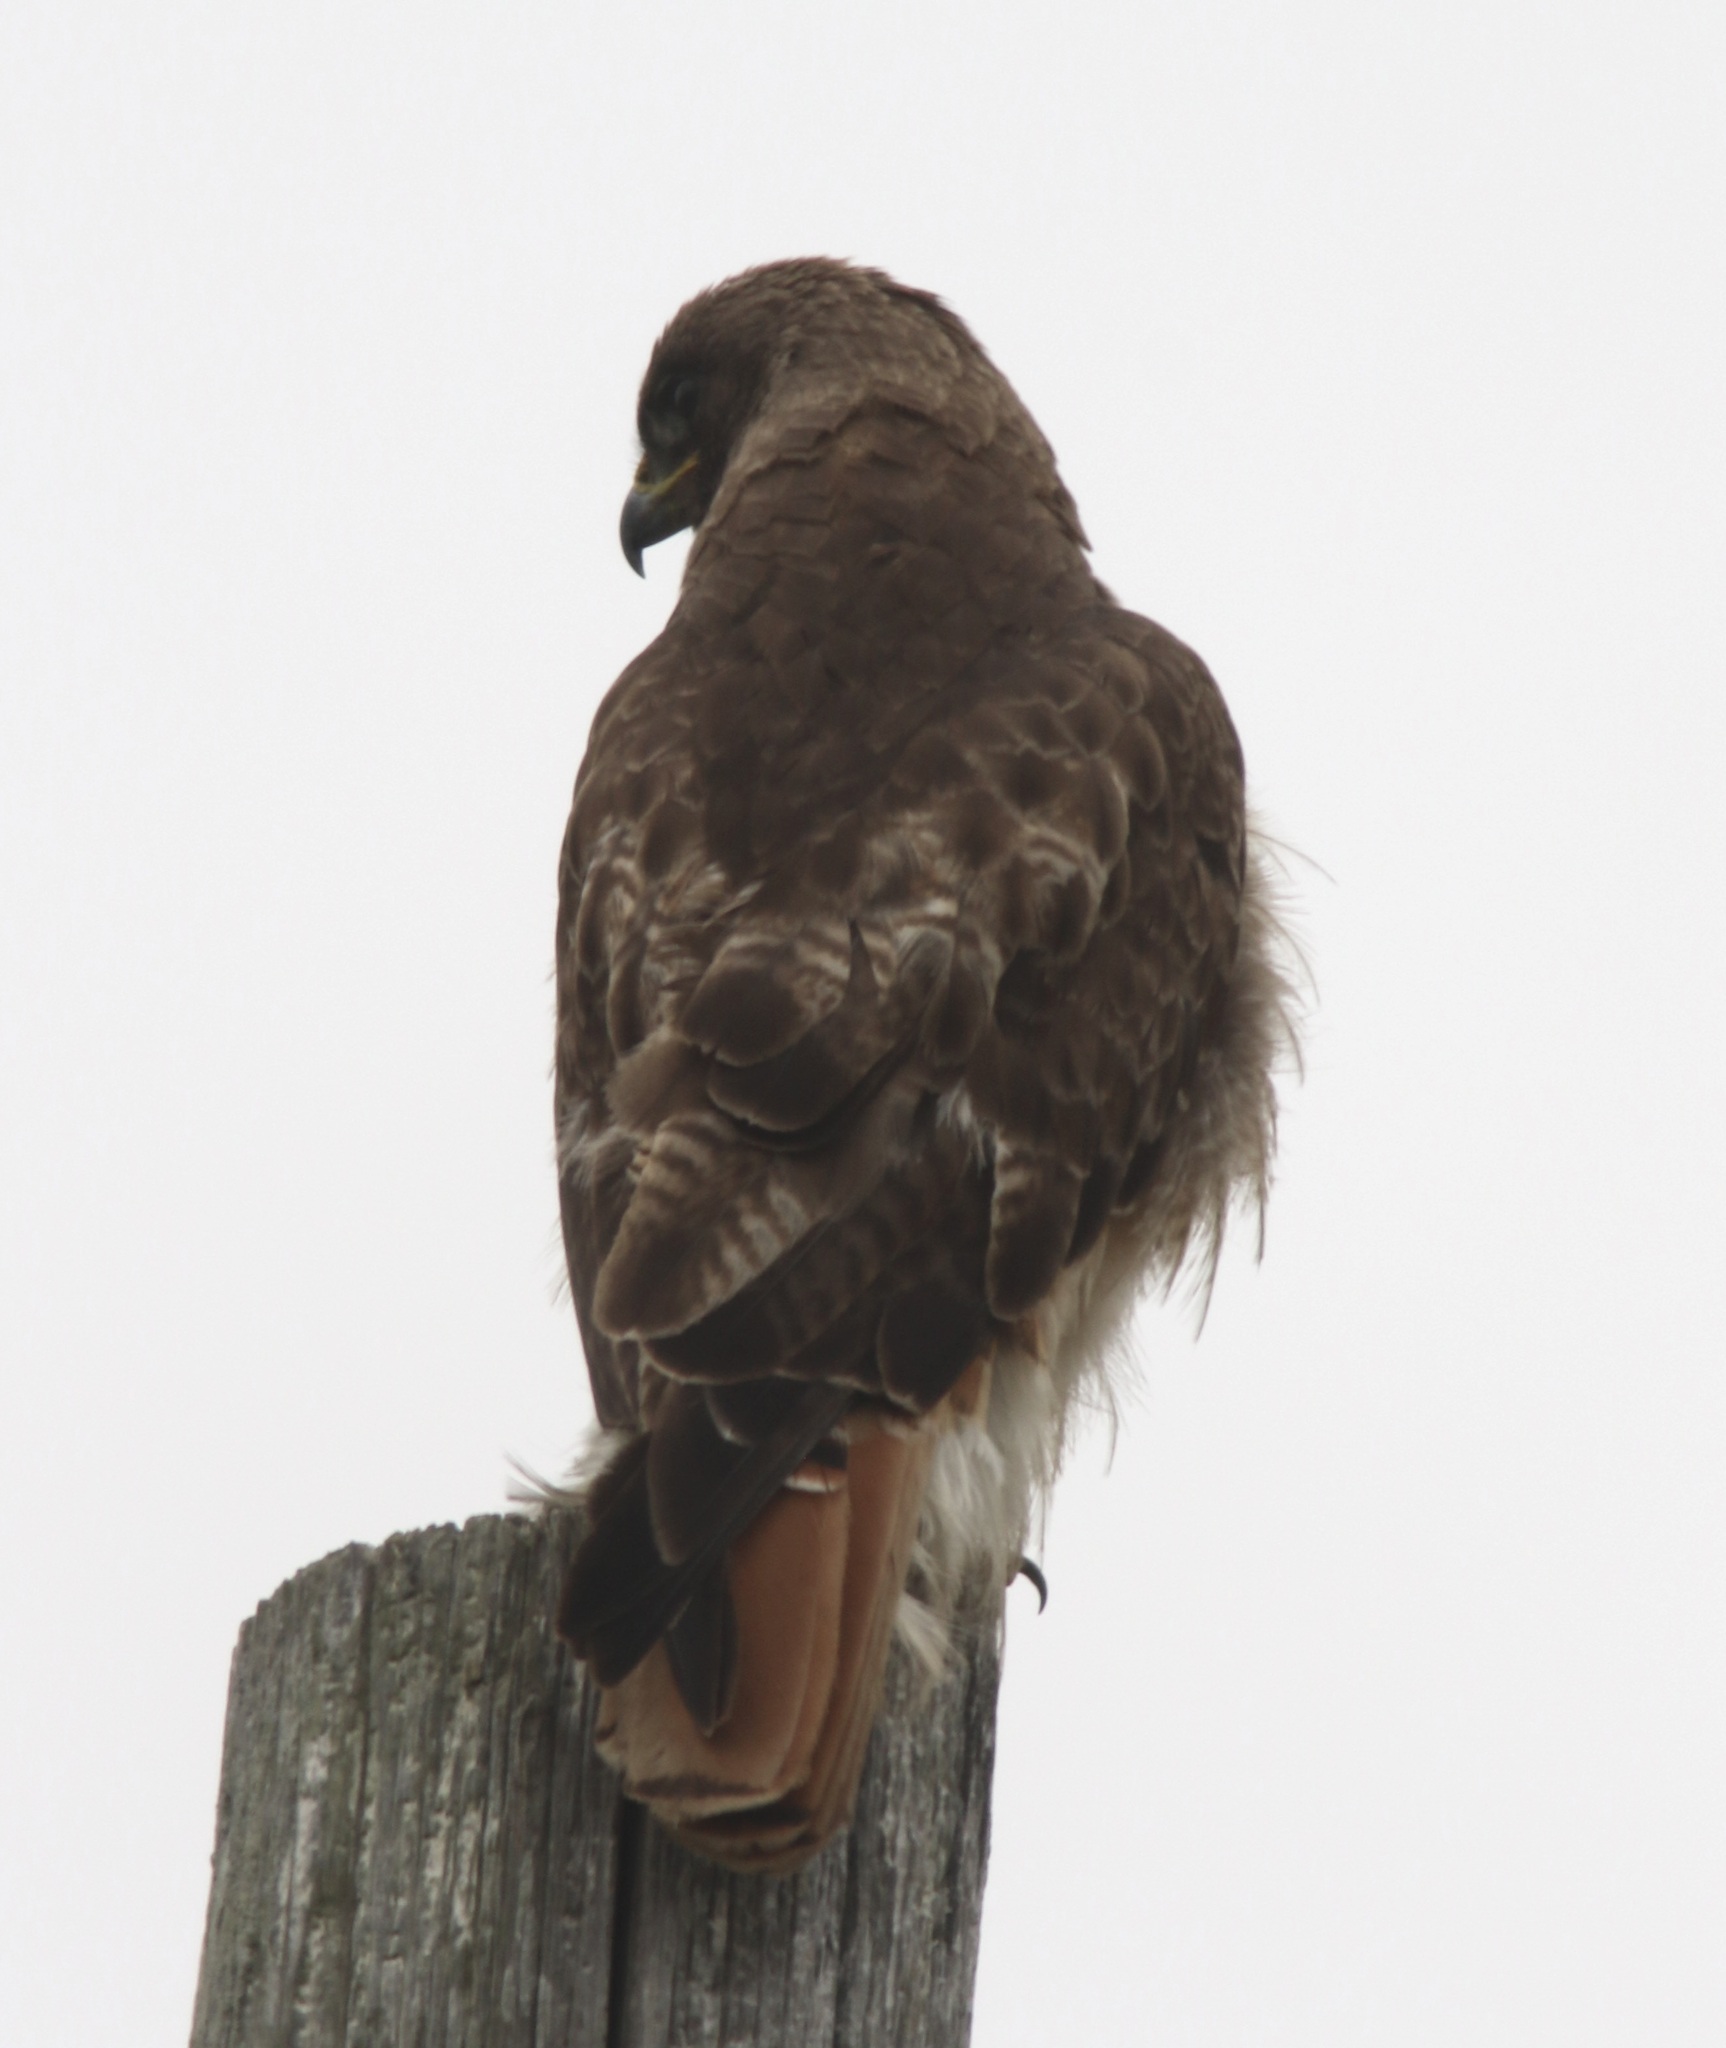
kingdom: Animalia
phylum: Chordata
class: Aves
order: Accipitriformes
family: Accipitridae
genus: Buteo
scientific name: Buteo jamaicensis
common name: Red-tailed hawk
